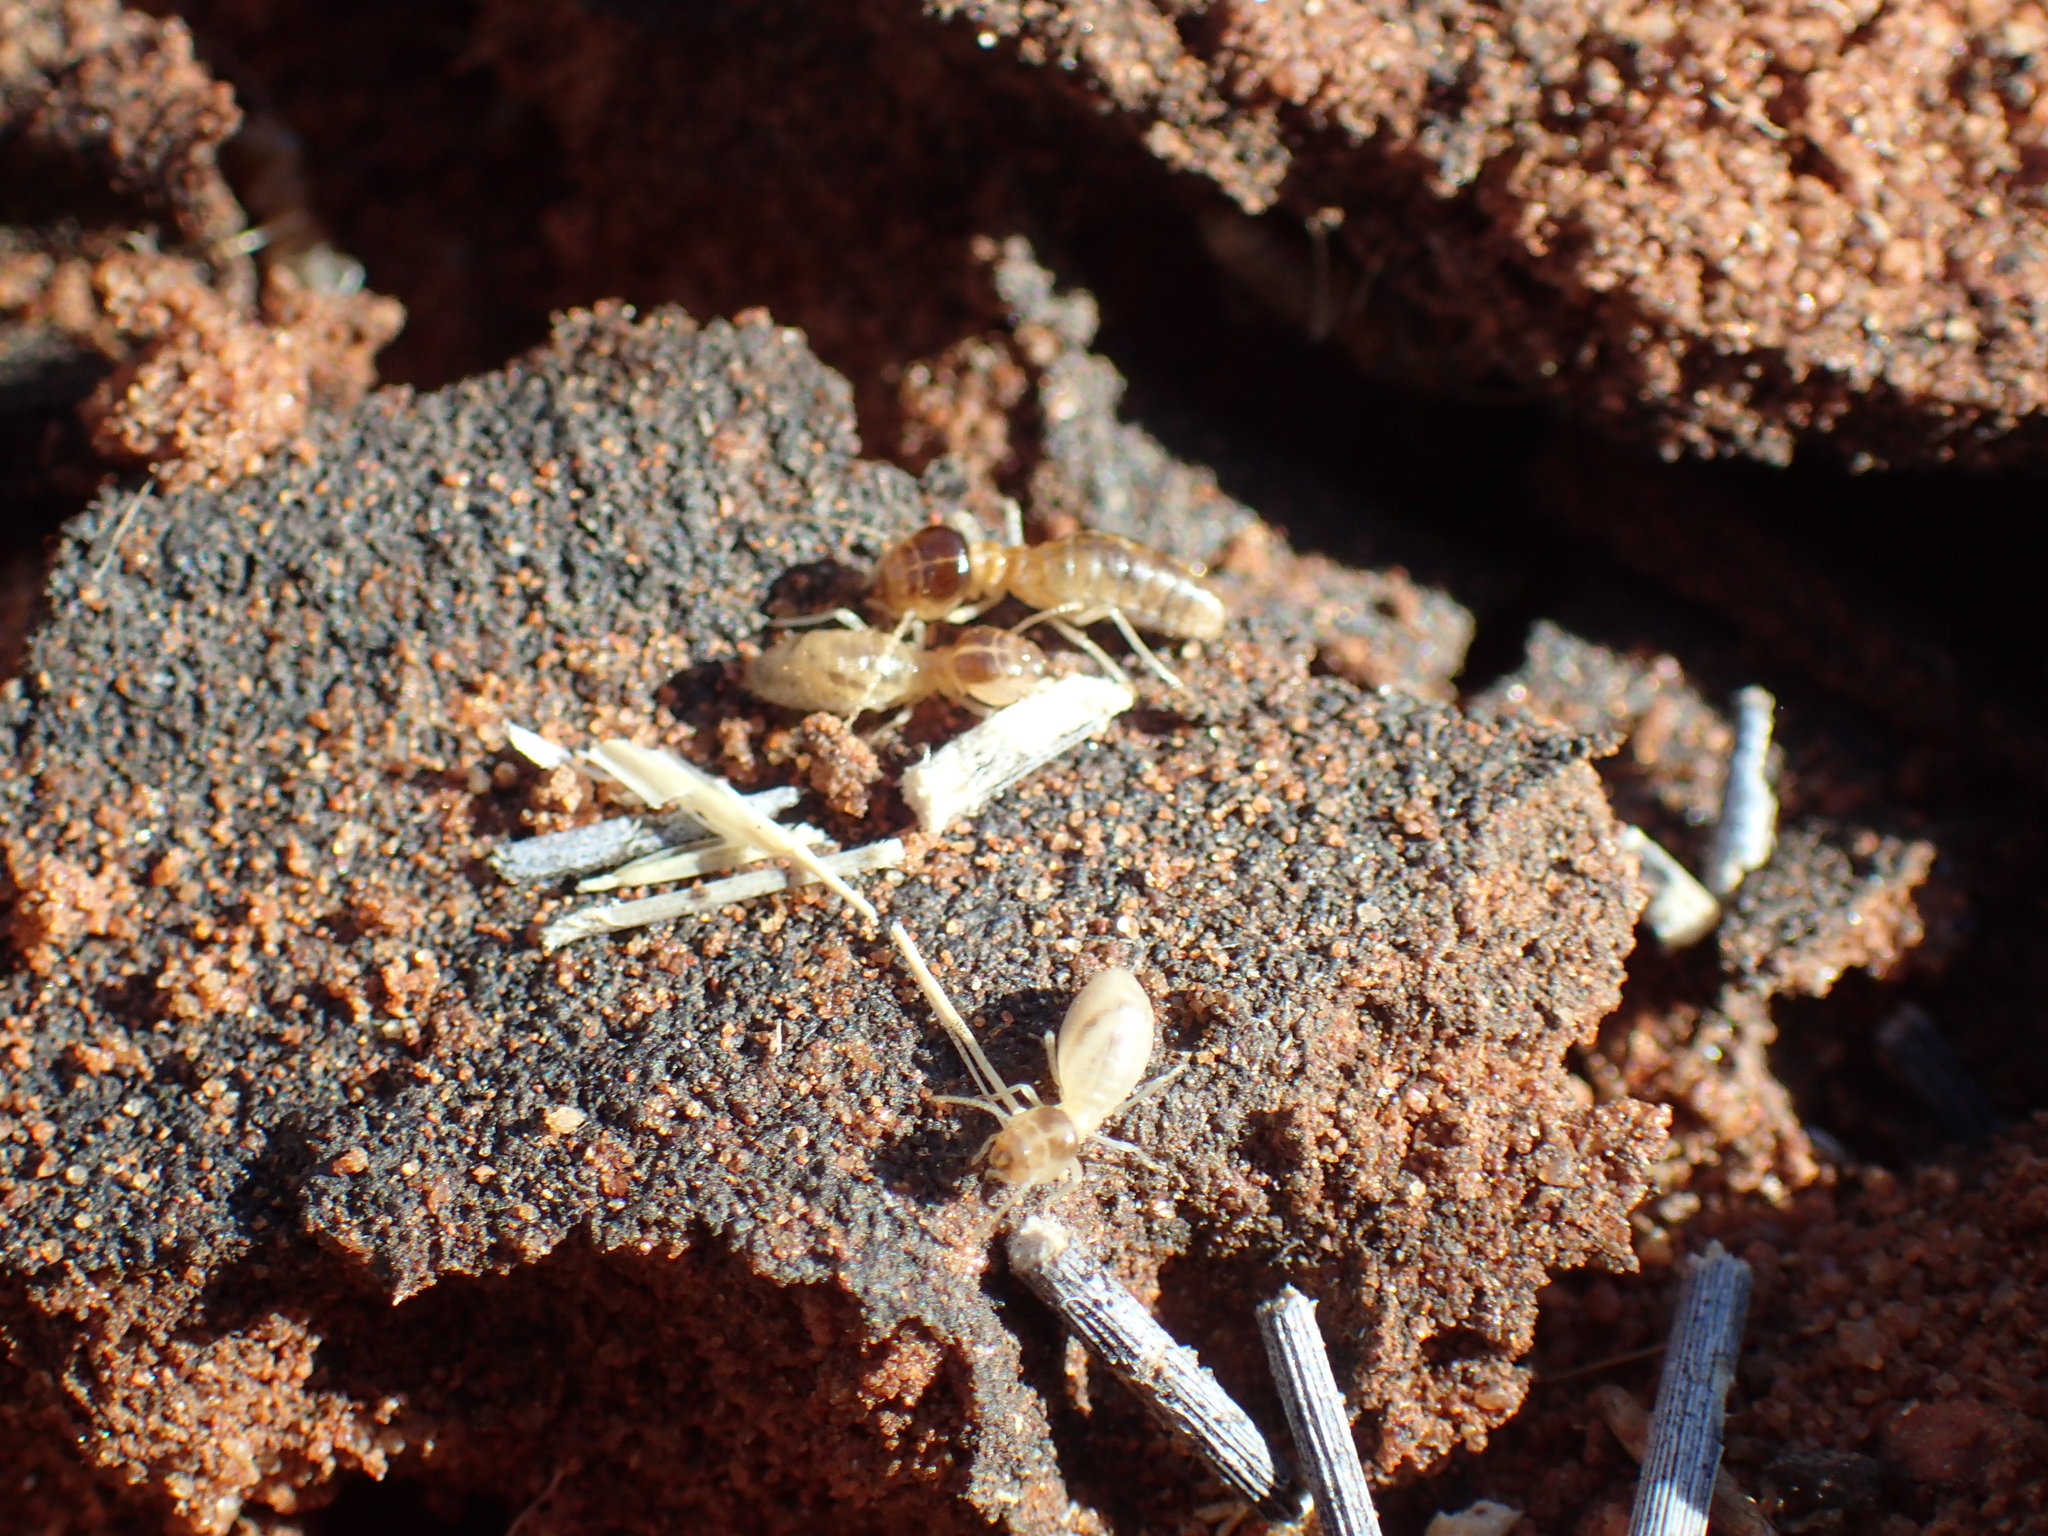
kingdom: Animalia
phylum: Arthropoda
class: Insecta
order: Blattodea
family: Termitidae
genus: Baucaliotermes
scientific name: Baucaliotermes hainesi
